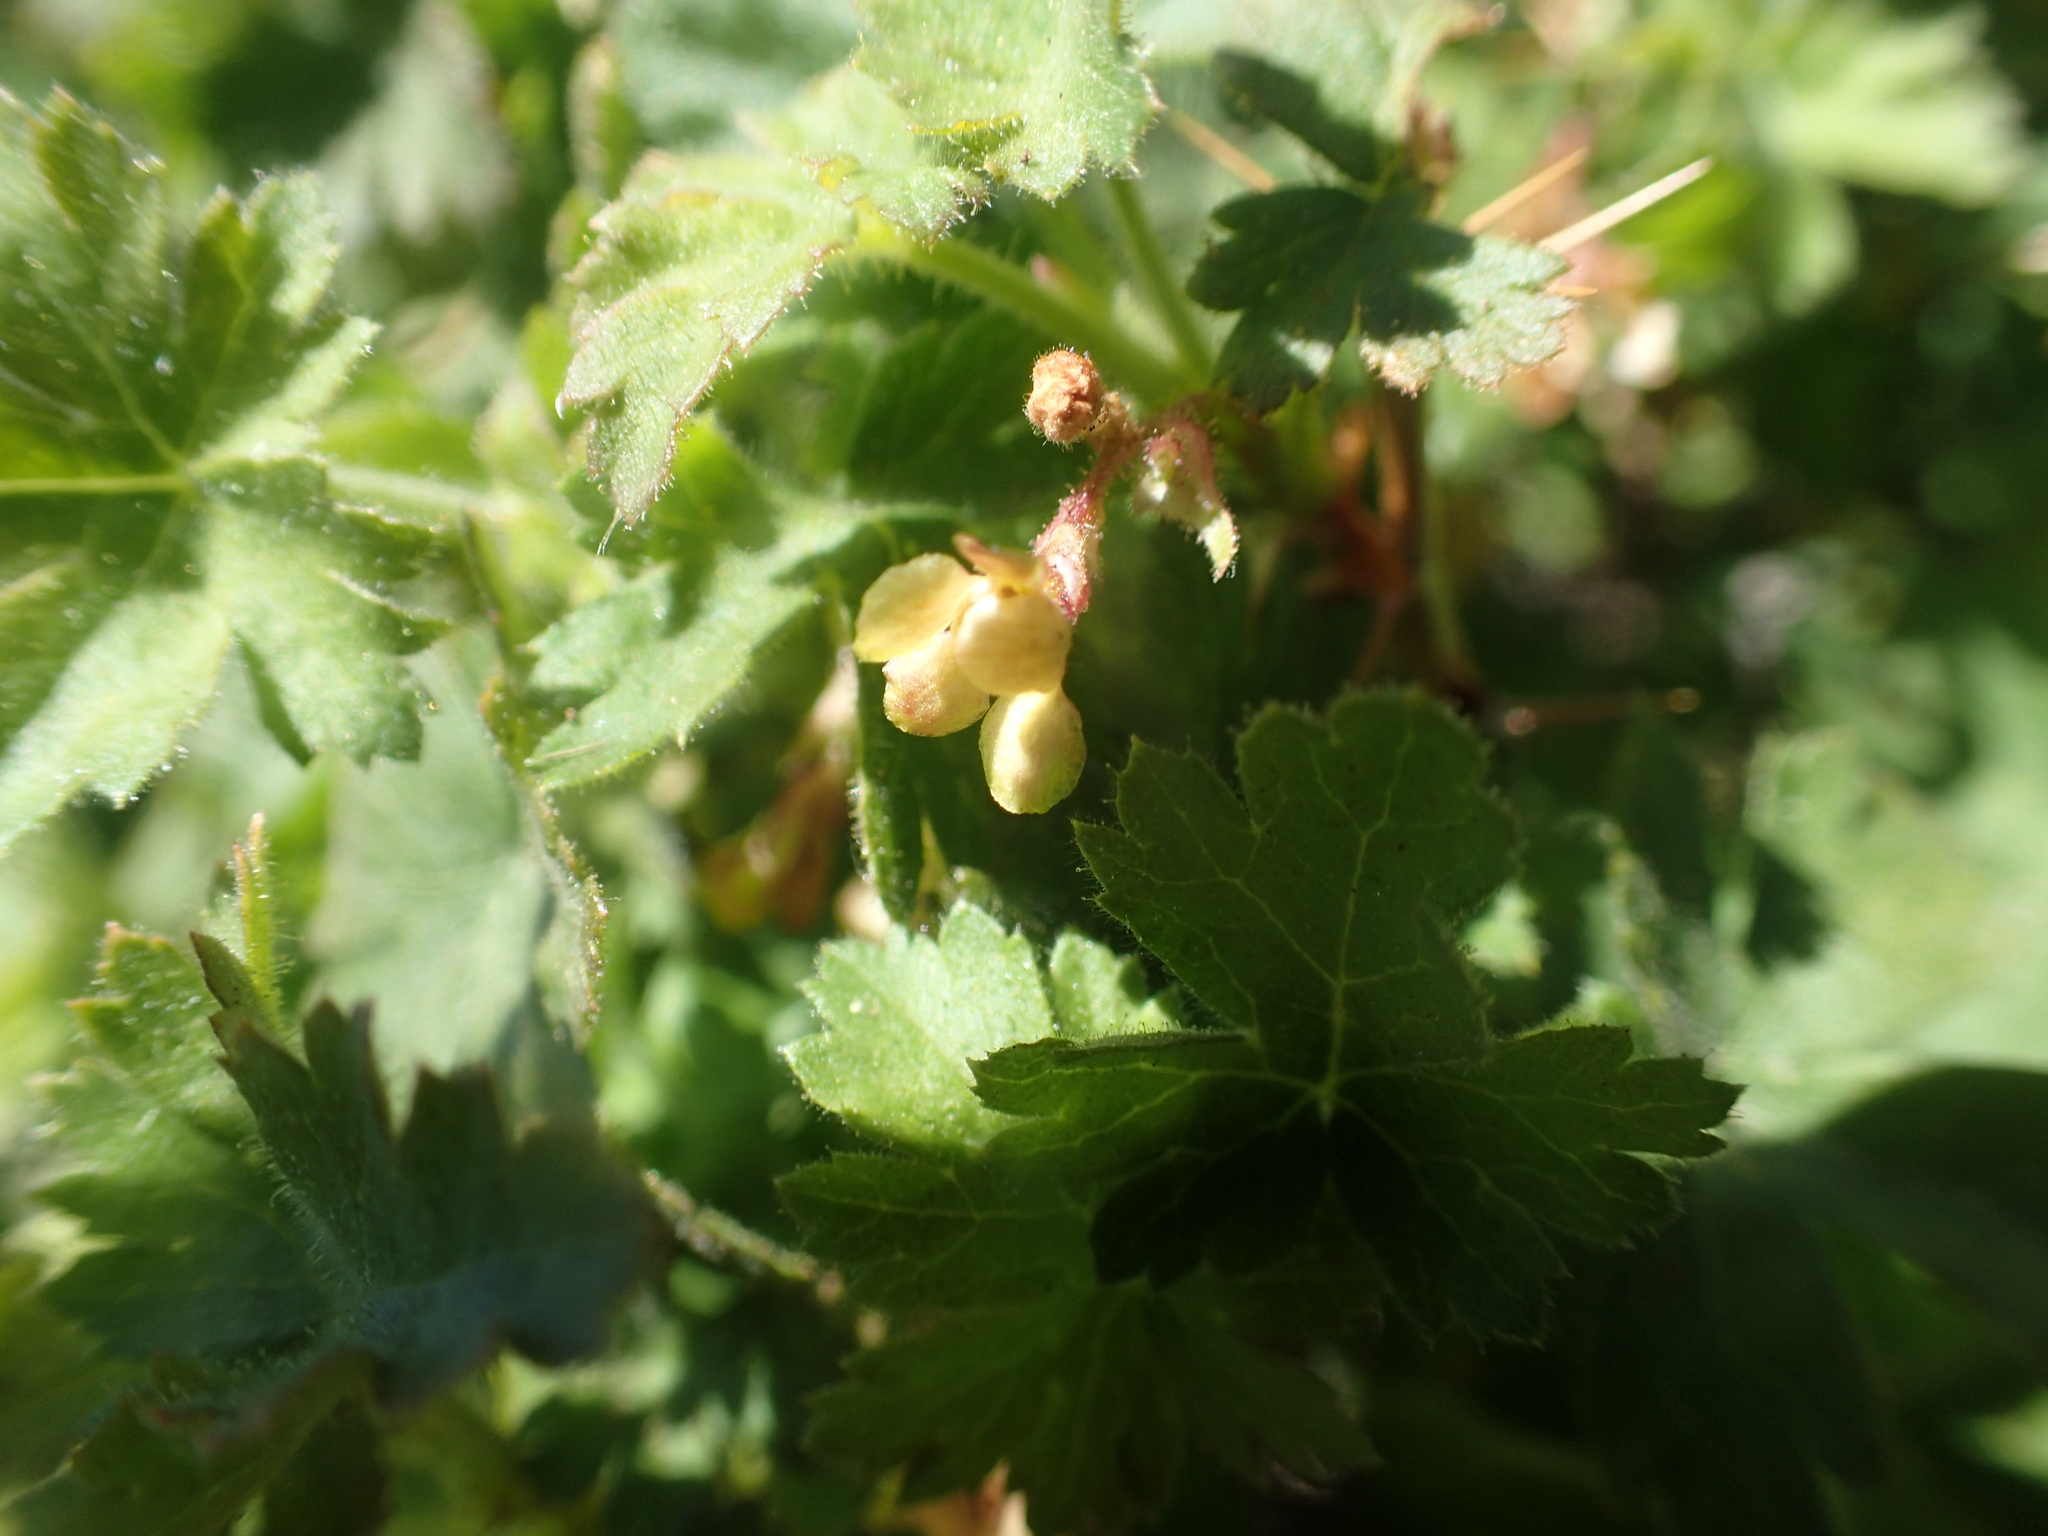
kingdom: Plantae
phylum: Tracheophyta
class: Magnoliopsida
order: Saxifragales
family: Grossulariaceae
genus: Ribes
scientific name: Ribes montigenum
